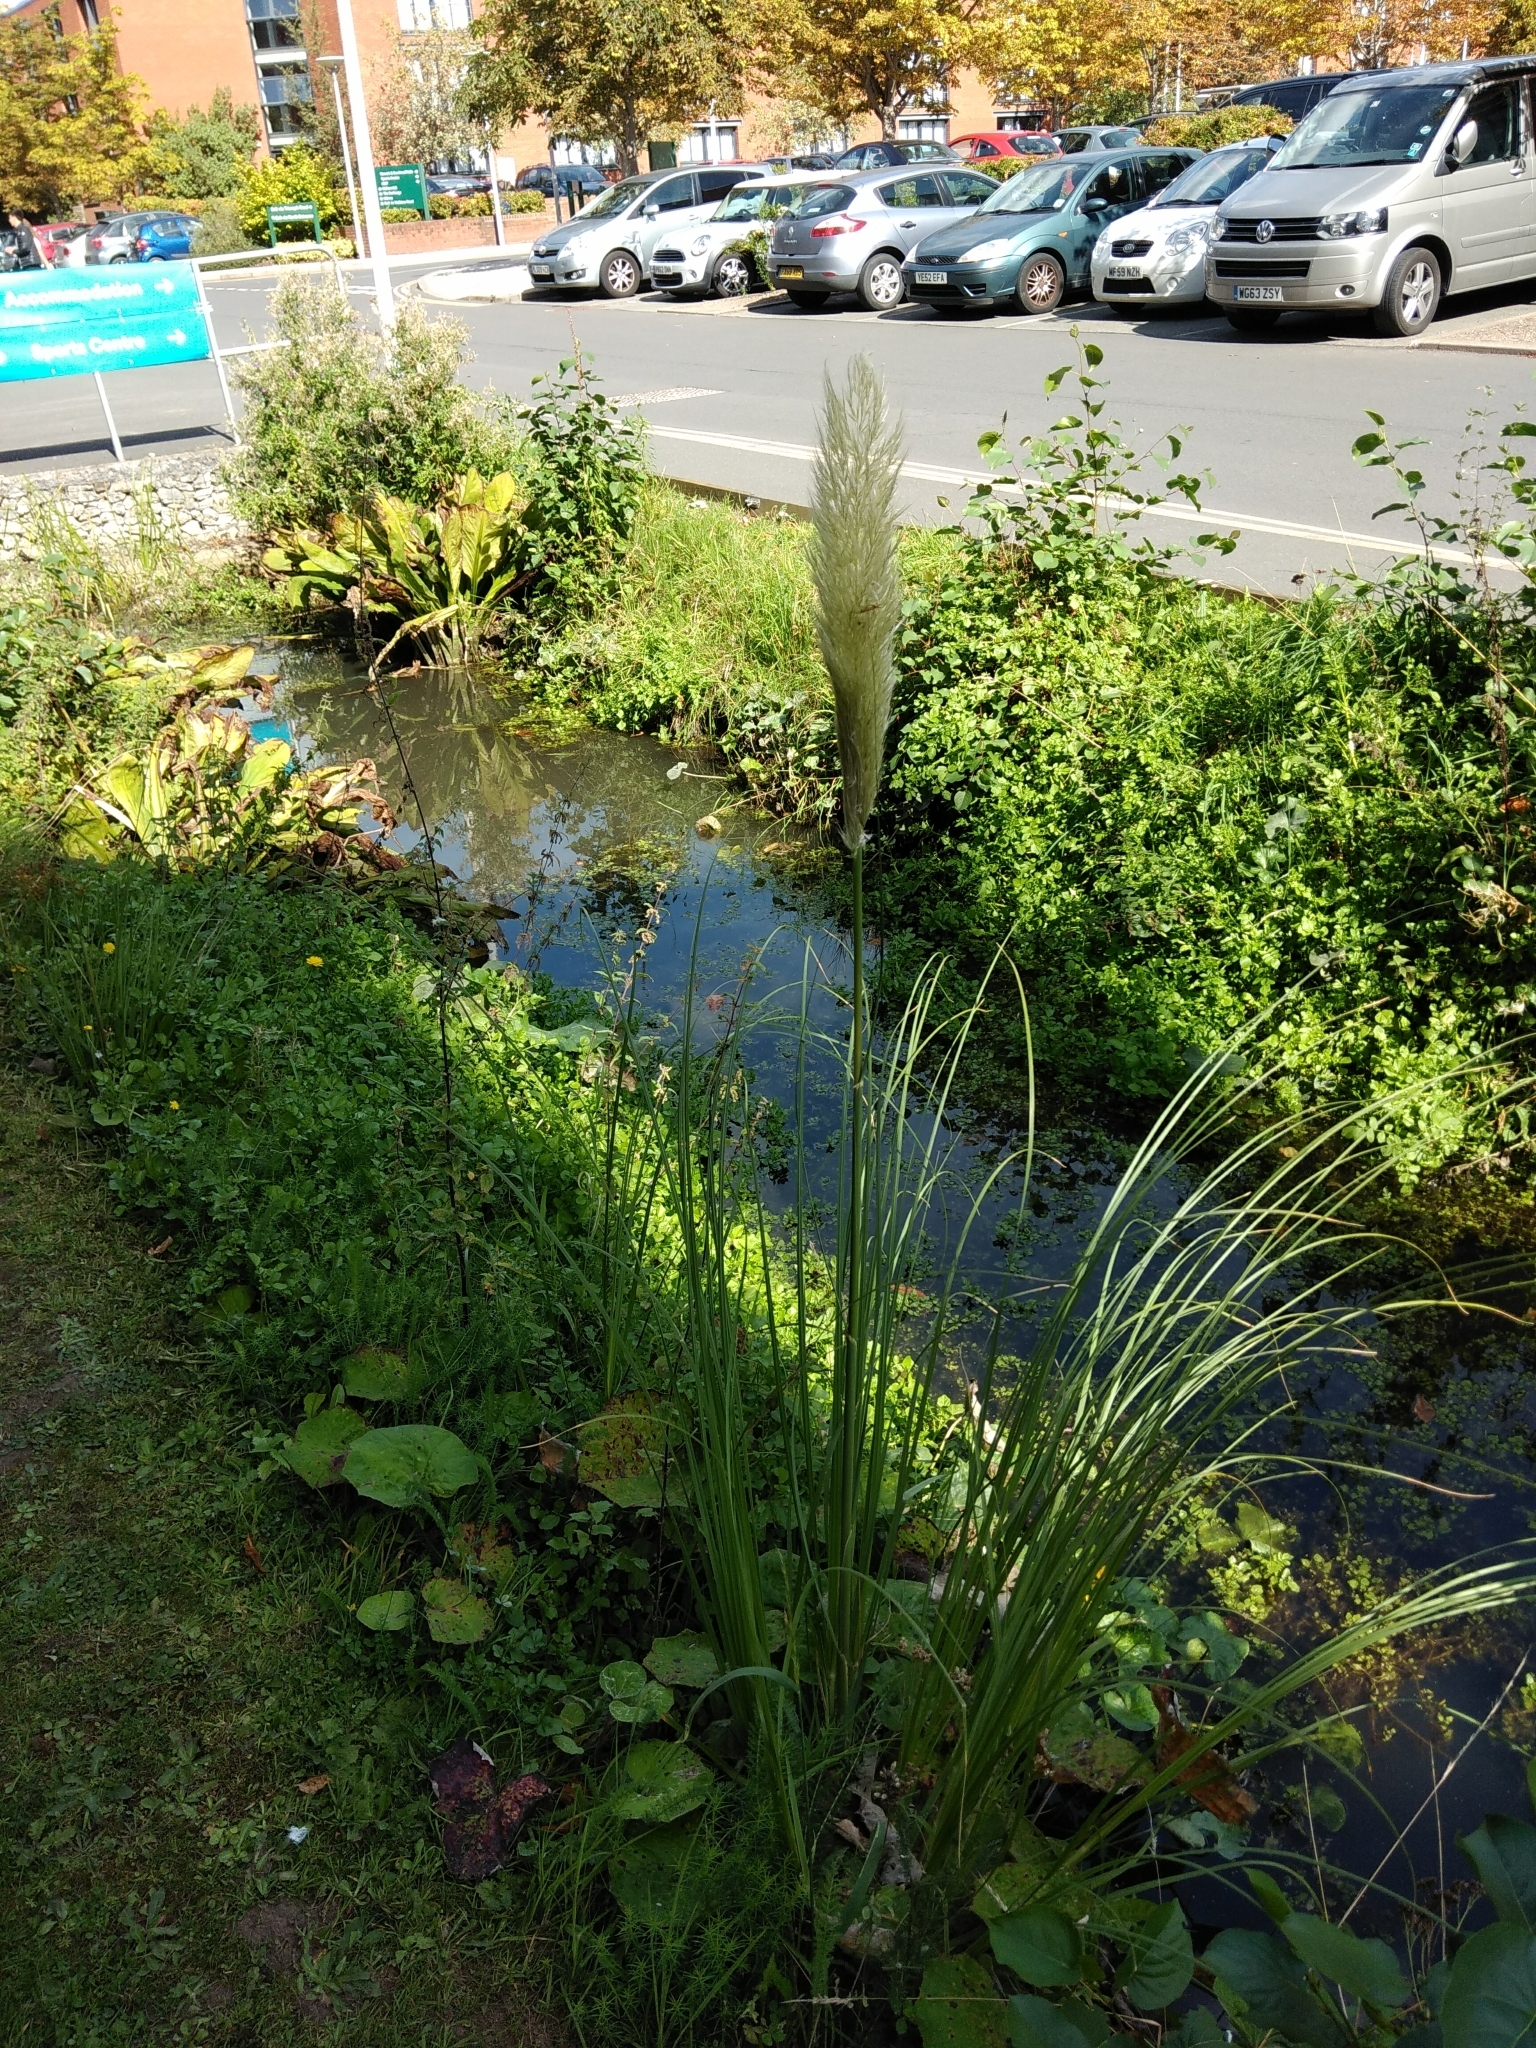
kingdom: Plantae
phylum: Tracheophyta
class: Liliopsida
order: Poales
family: Poaceae
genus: Cortaderia
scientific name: Cortaderia selloana
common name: Uruguayan pampas grass
